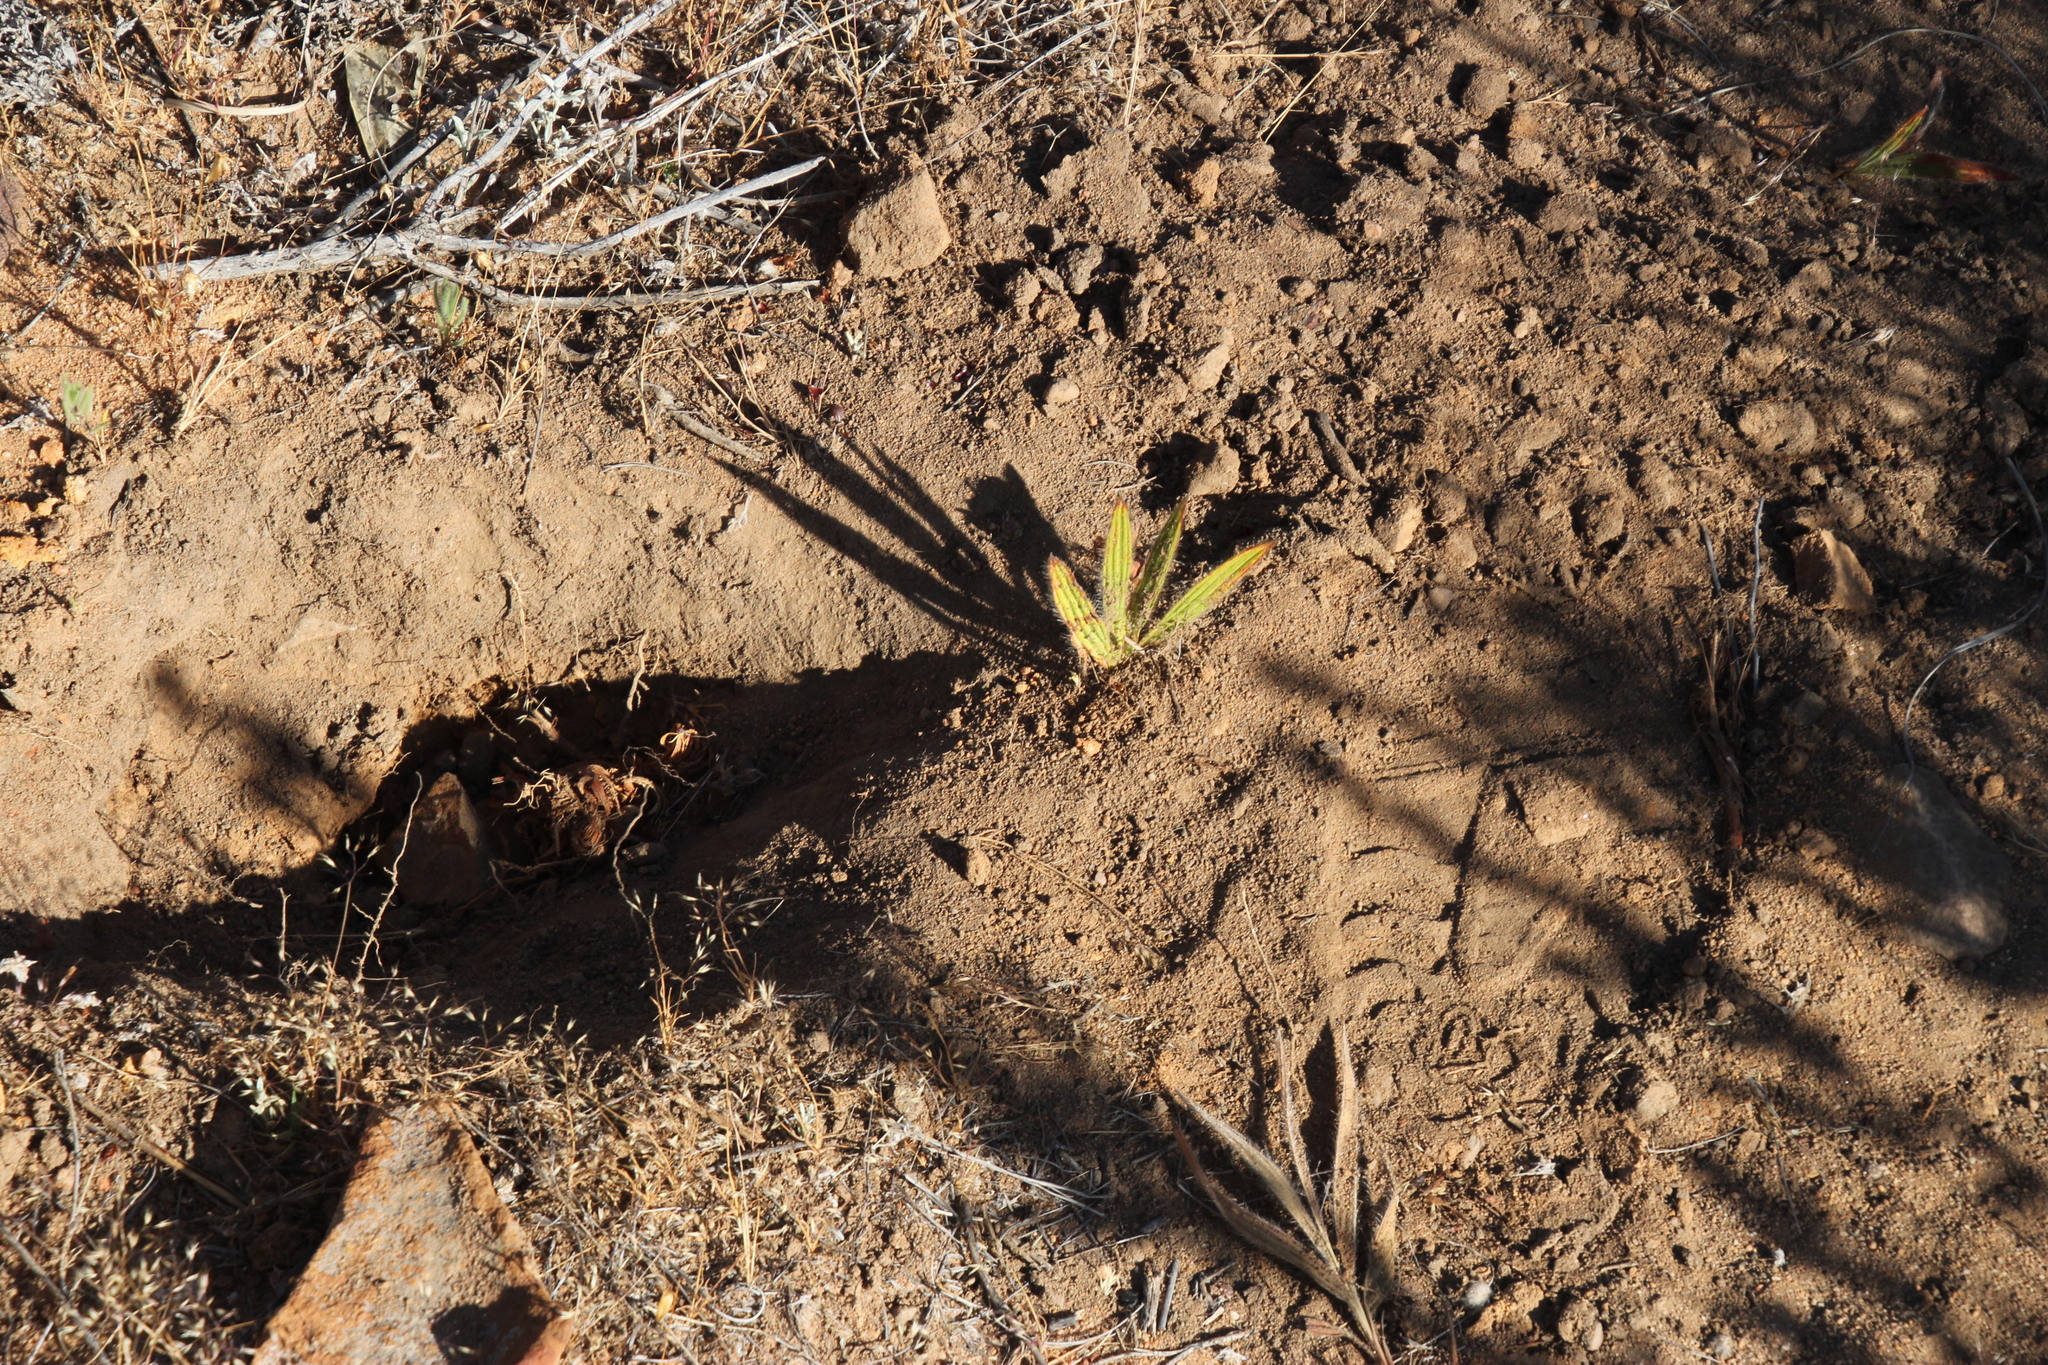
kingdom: Animalia
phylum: Chordata
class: Mammalia
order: Primates
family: Cercopithecidae
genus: Papio
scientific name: Papio ursinus
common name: Chacma baboon
